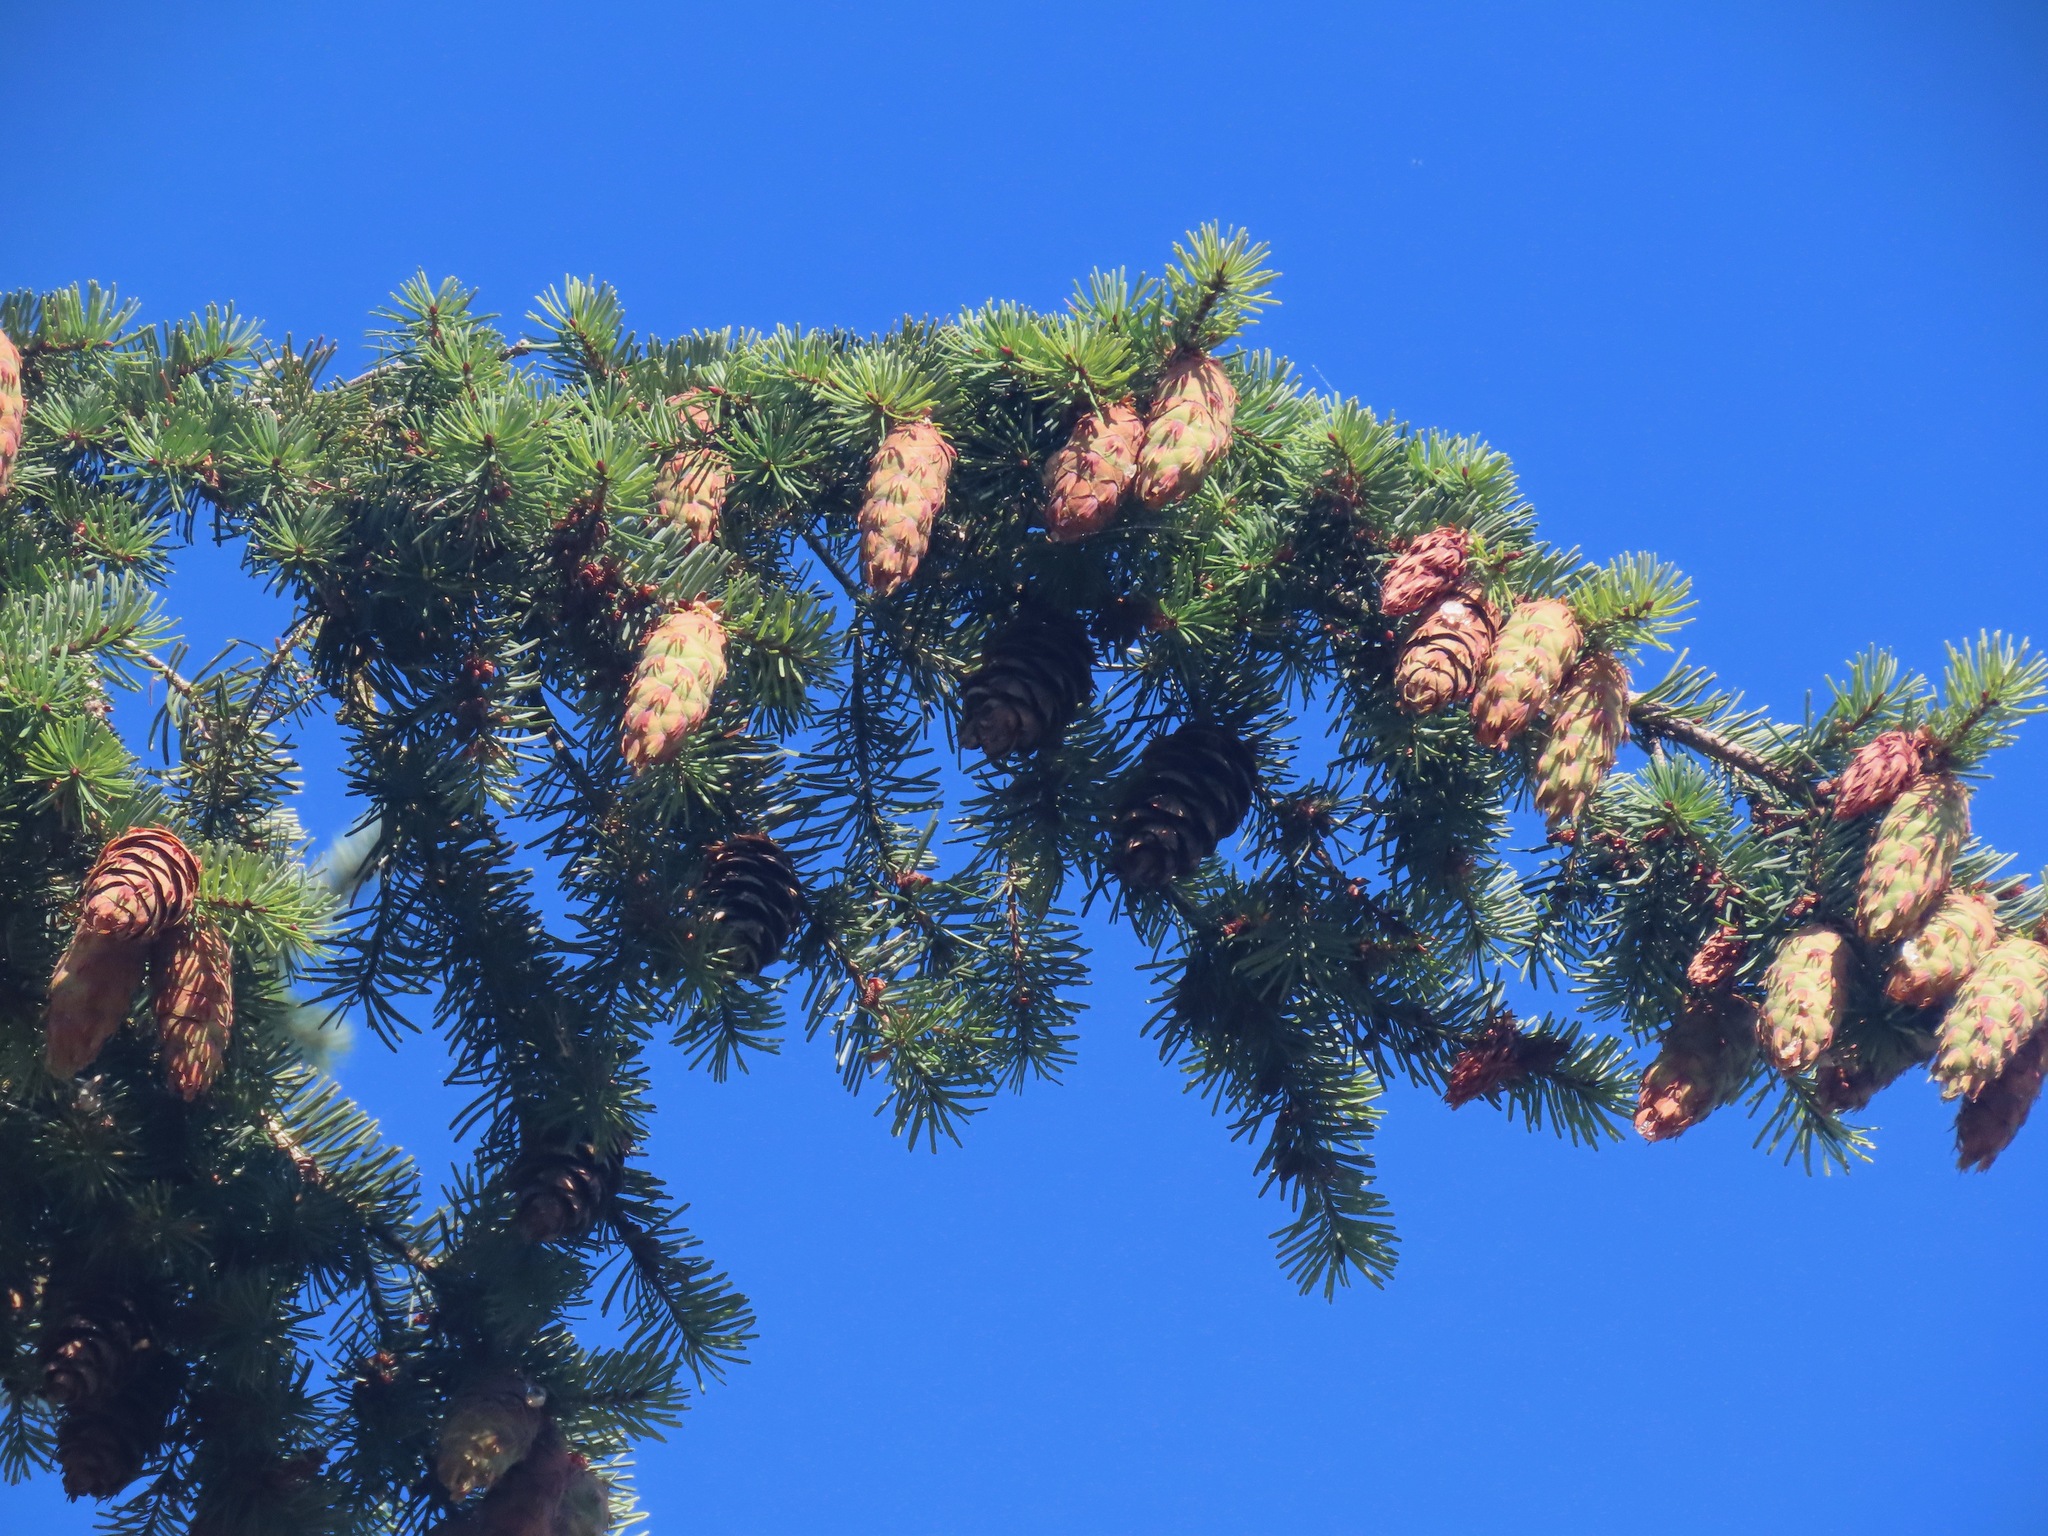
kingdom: Plantae
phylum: Tracheophyta
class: Pinopsida
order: Pinales
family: Pinaceae
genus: Pseudotsuga
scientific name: Pseudotsuga menziesii
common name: Douglas fir
